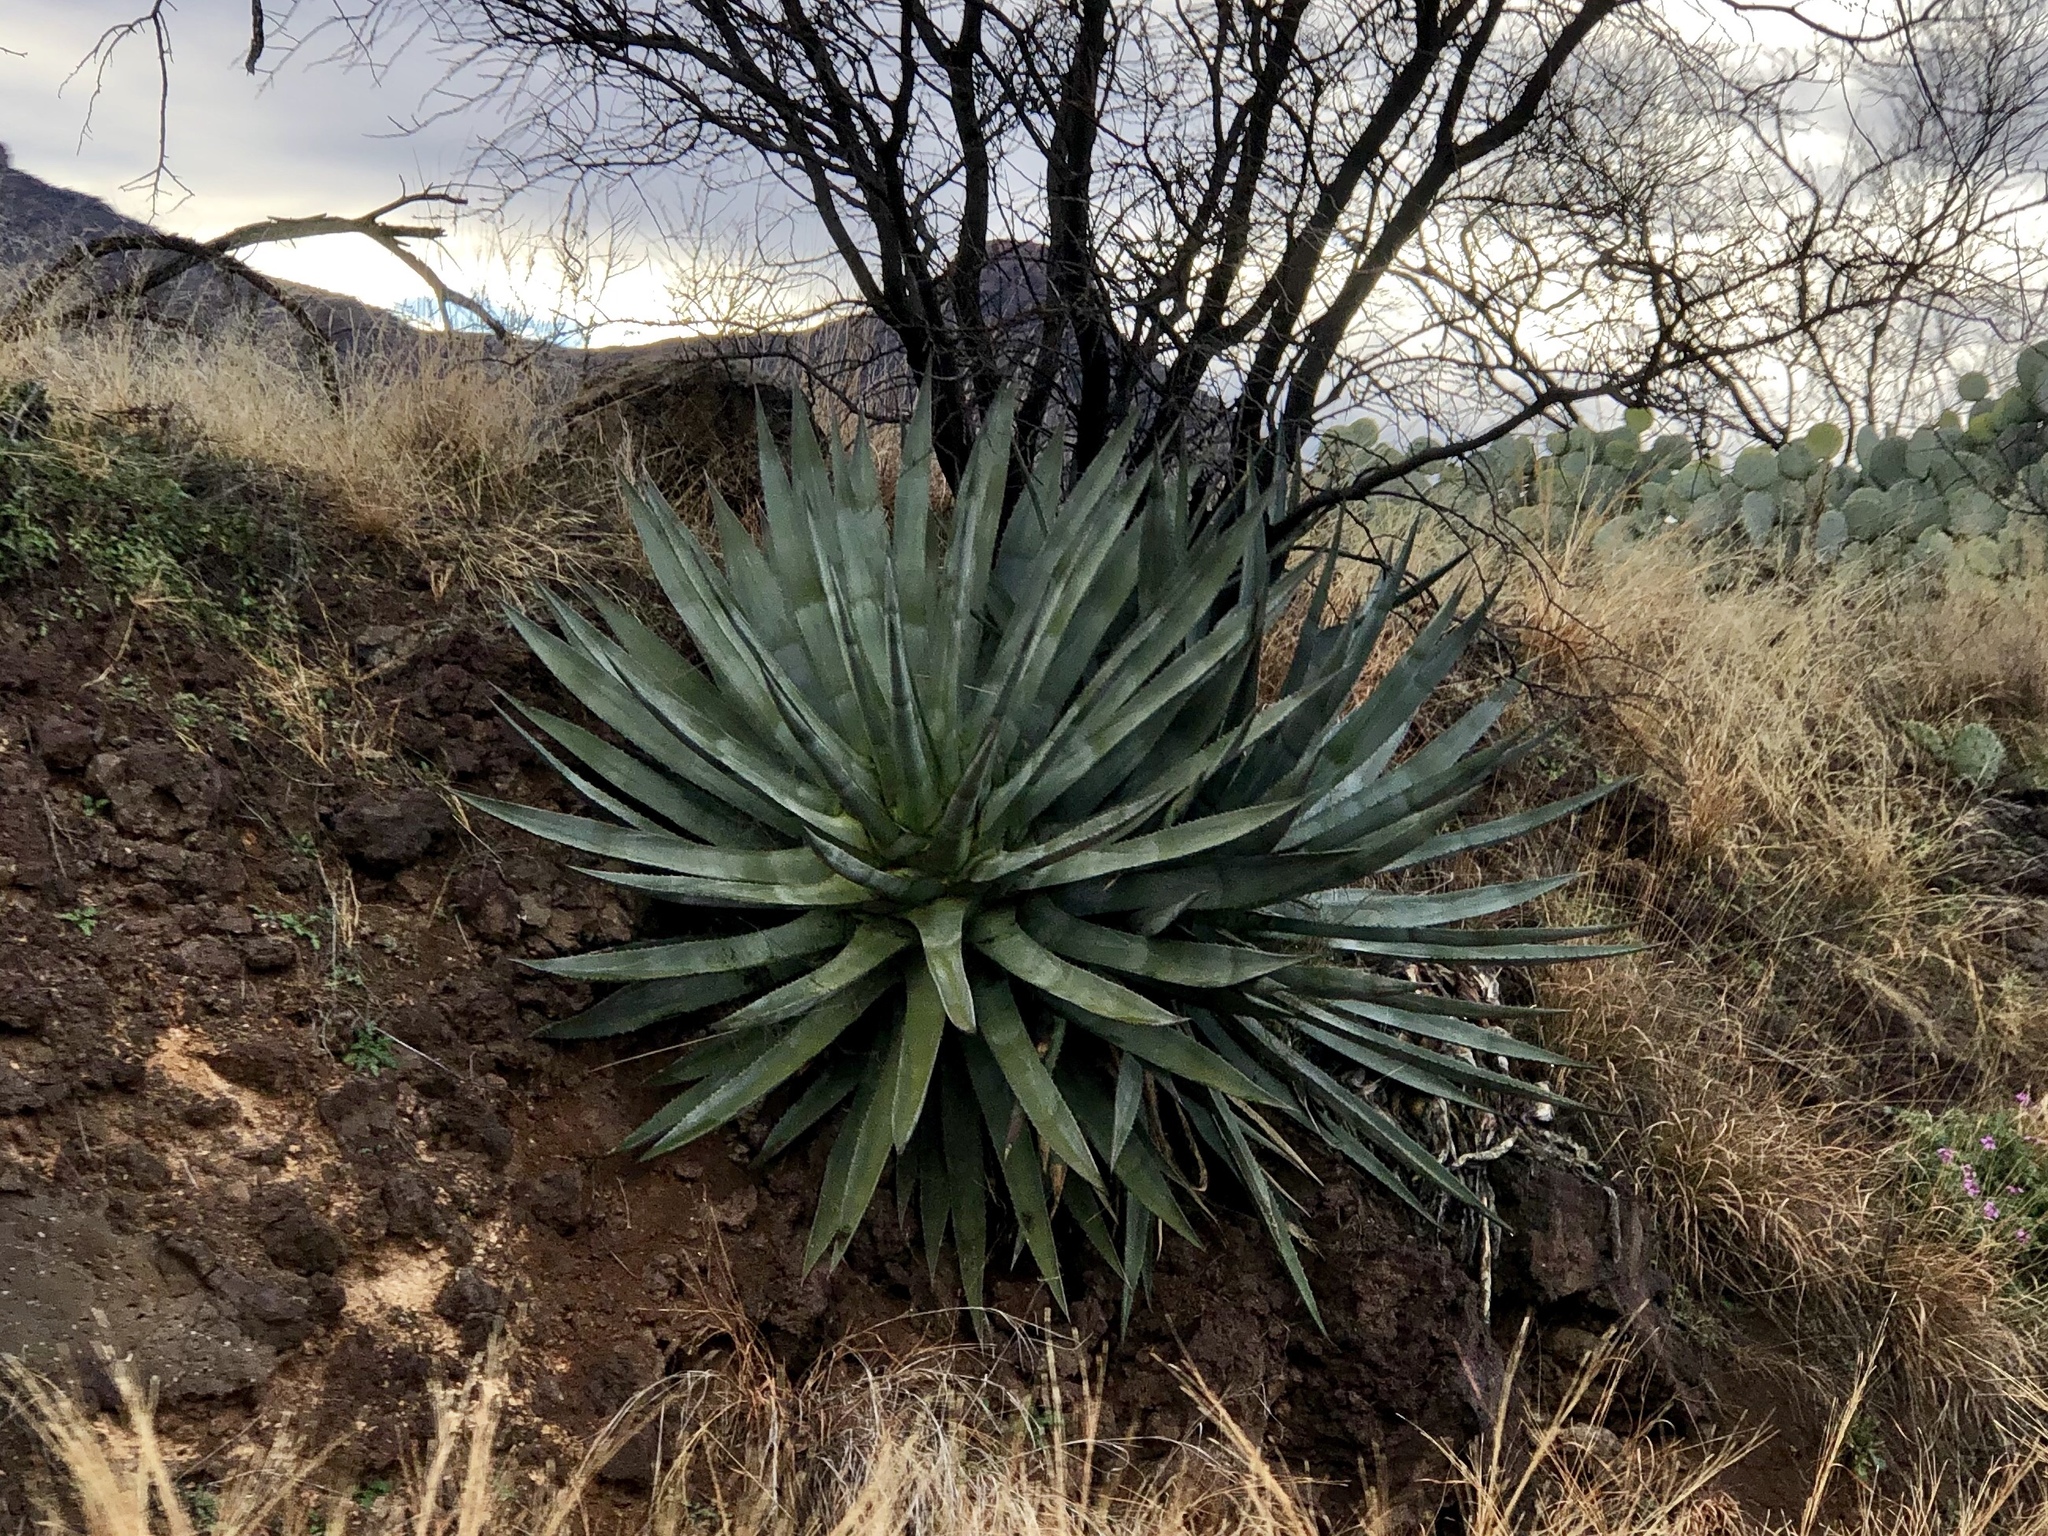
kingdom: Plantae
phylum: Tracheophyta
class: Liliopsida
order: Asparagales
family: Asparagaceae
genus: Agave
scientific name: Agave palmeri
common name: Palmer agave
